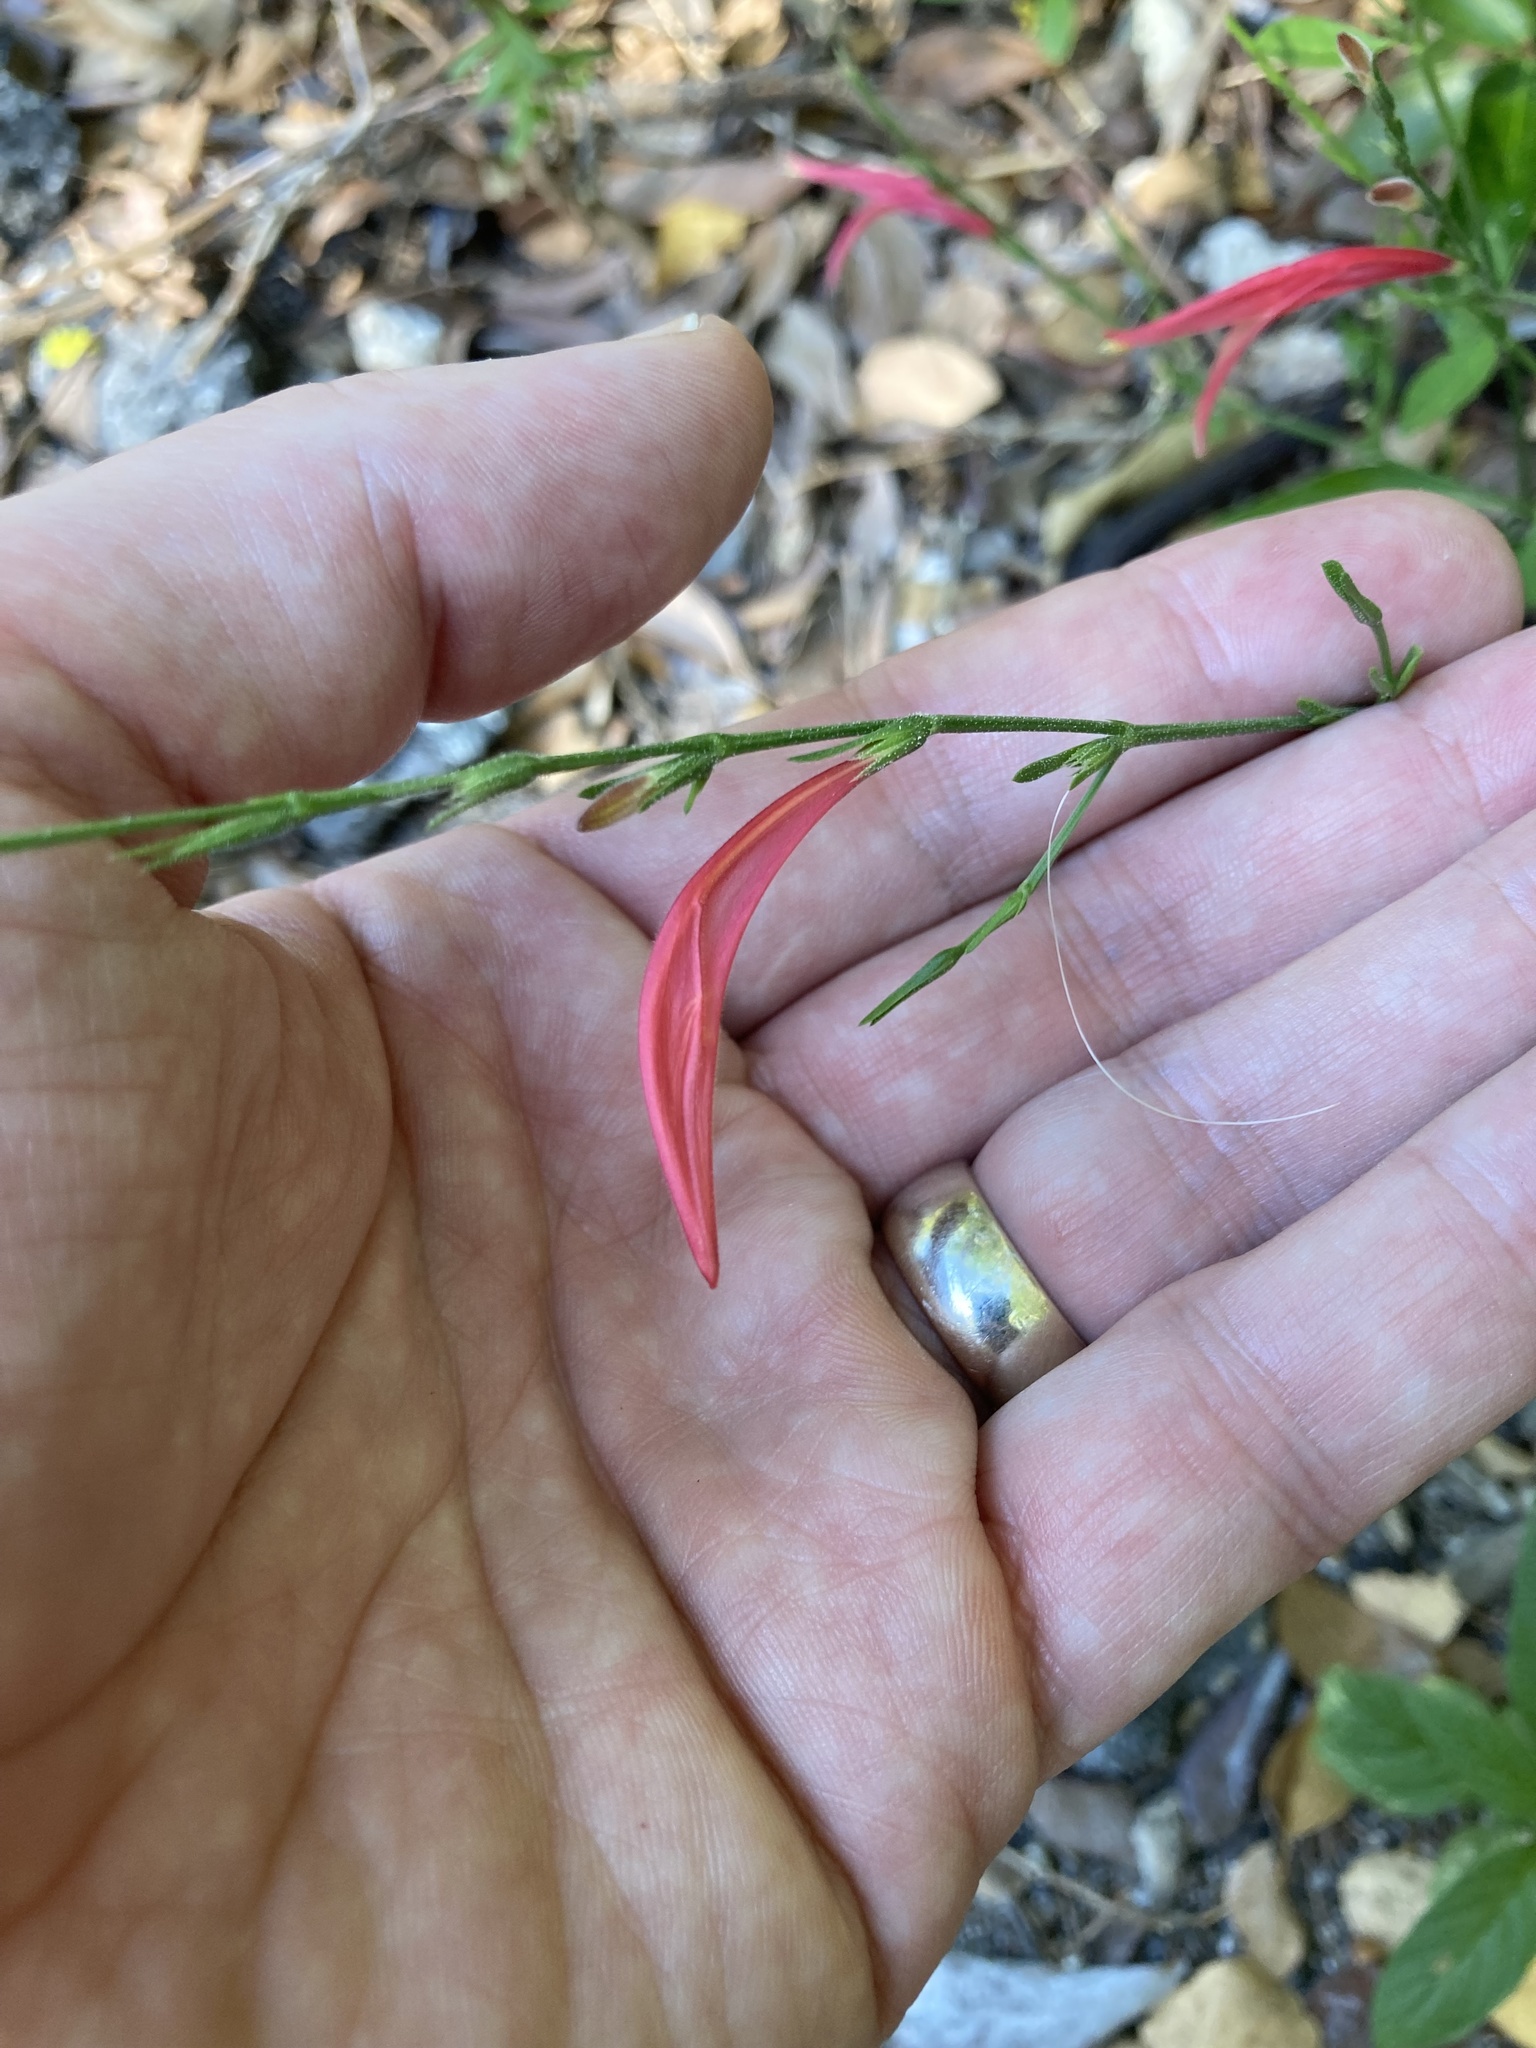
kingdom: Plantae
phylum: Tracheophyta
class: Magnoliopsida
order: Lamiales
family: Acanthaceae
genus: Dicliptera
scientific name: Dicliptera sexangularis
